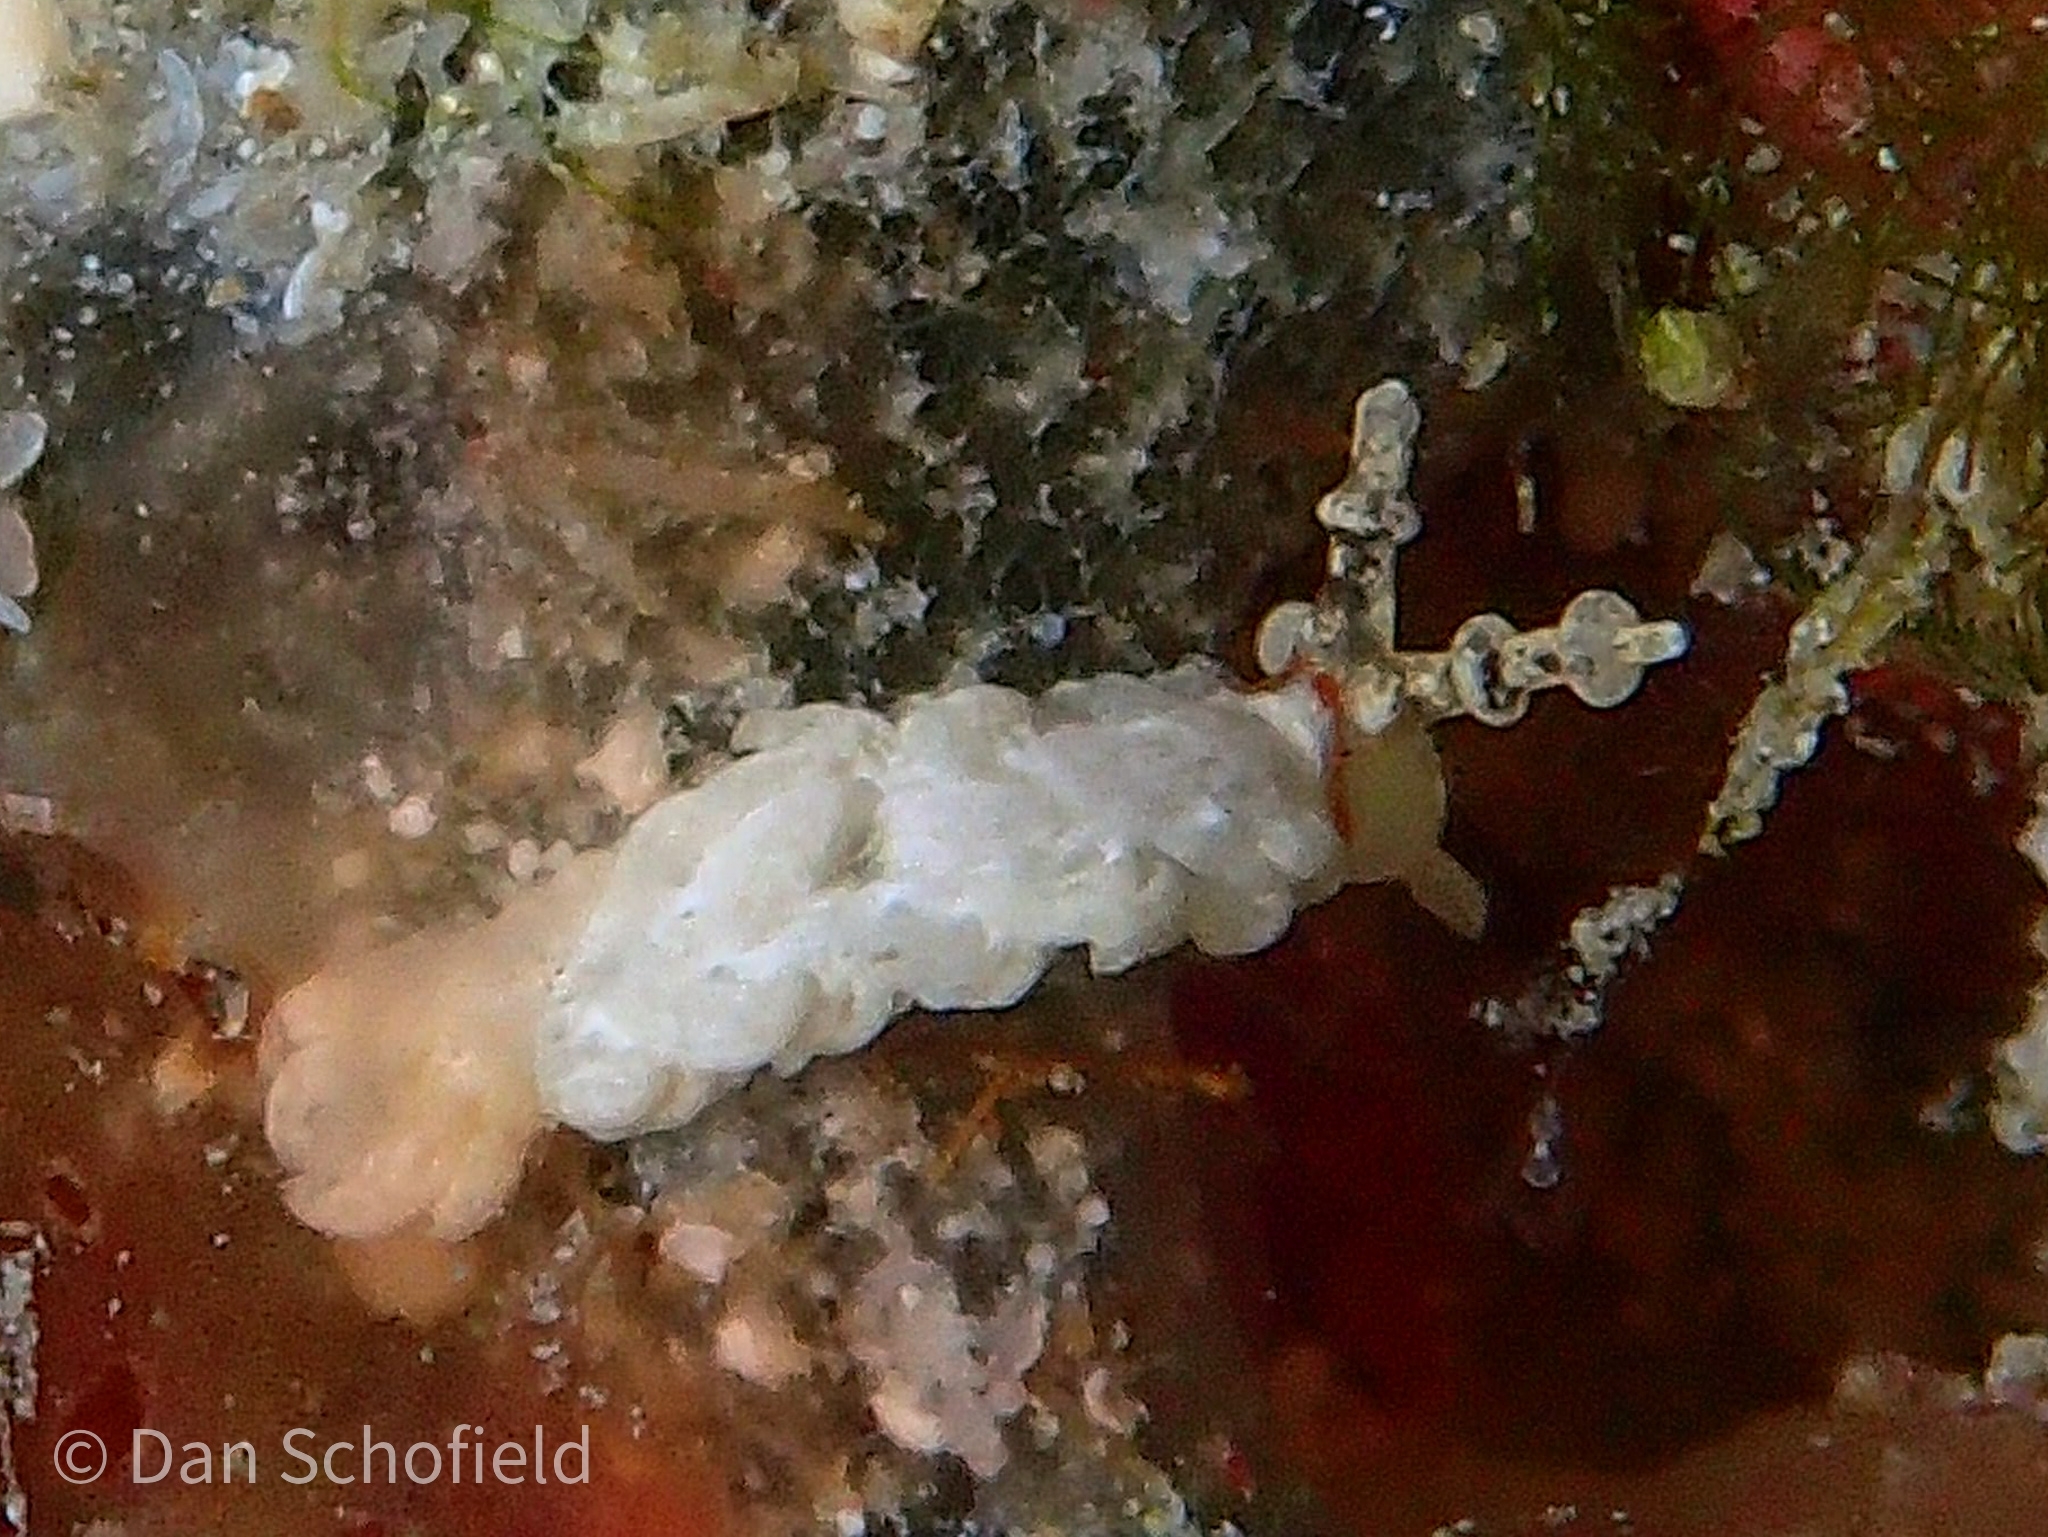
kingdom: Animalia
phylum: Mollusca
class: Gastropoda
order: Nudibranchia
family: Aeolidiidae
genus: Bulbaeolidia
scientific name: Bulbaeolidia alba
